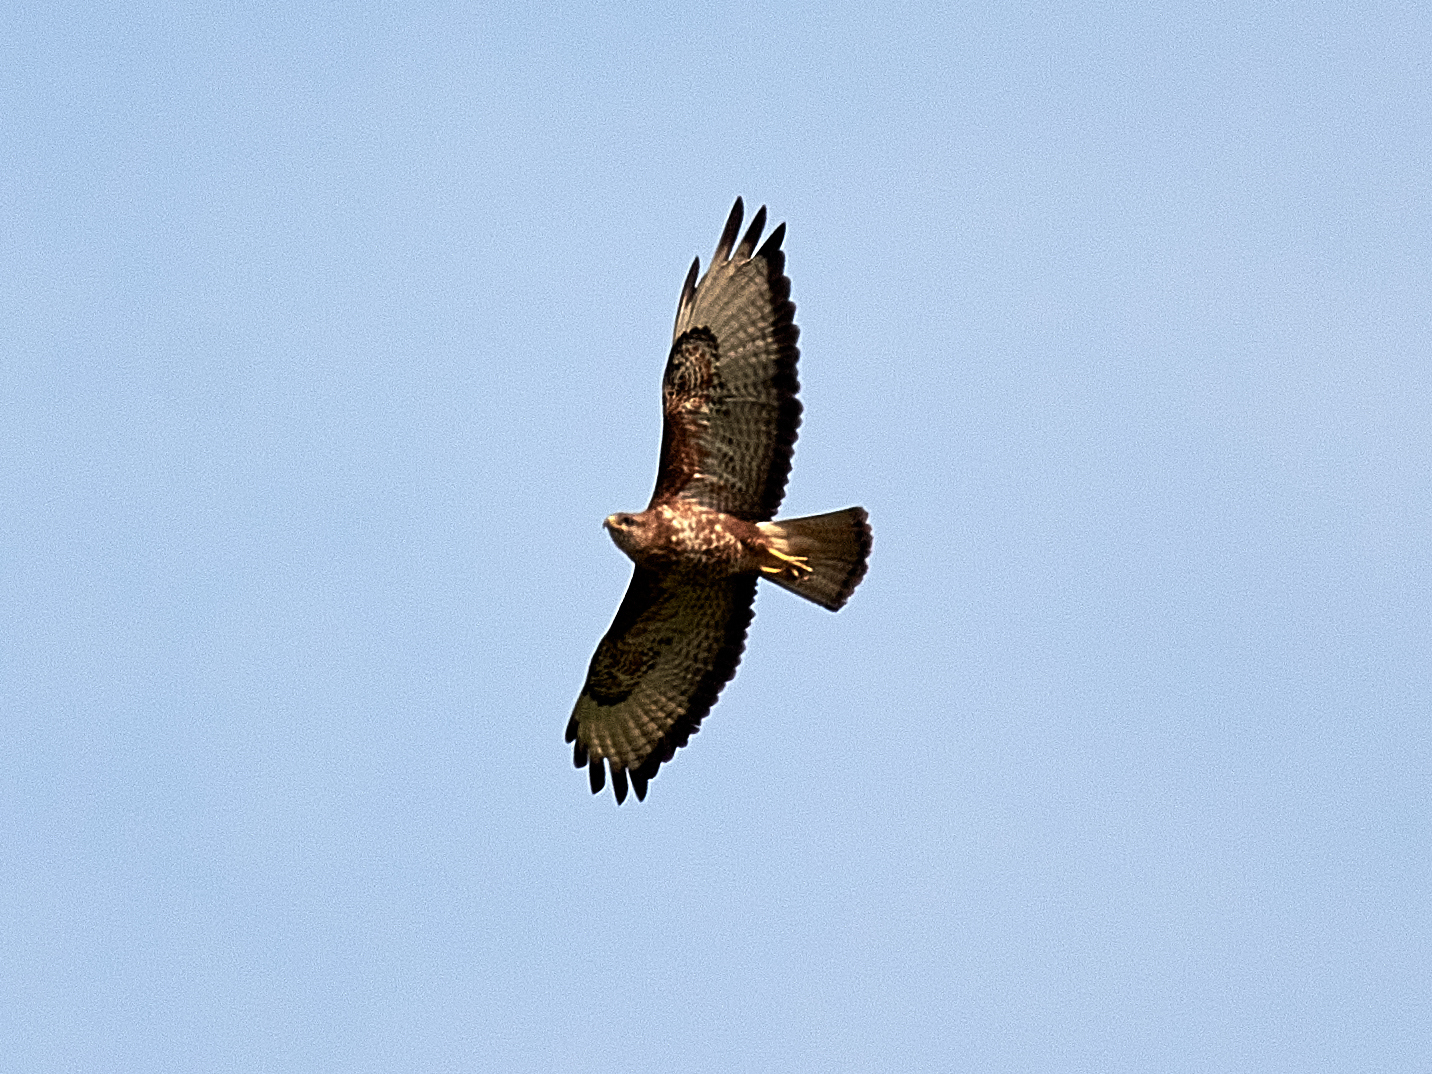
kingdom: Animalia
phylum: Chordata
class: Aves
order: Accipitriformes
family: Accipitridae
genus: Buteo
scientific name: Buteo buteo
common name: Common buzzard
